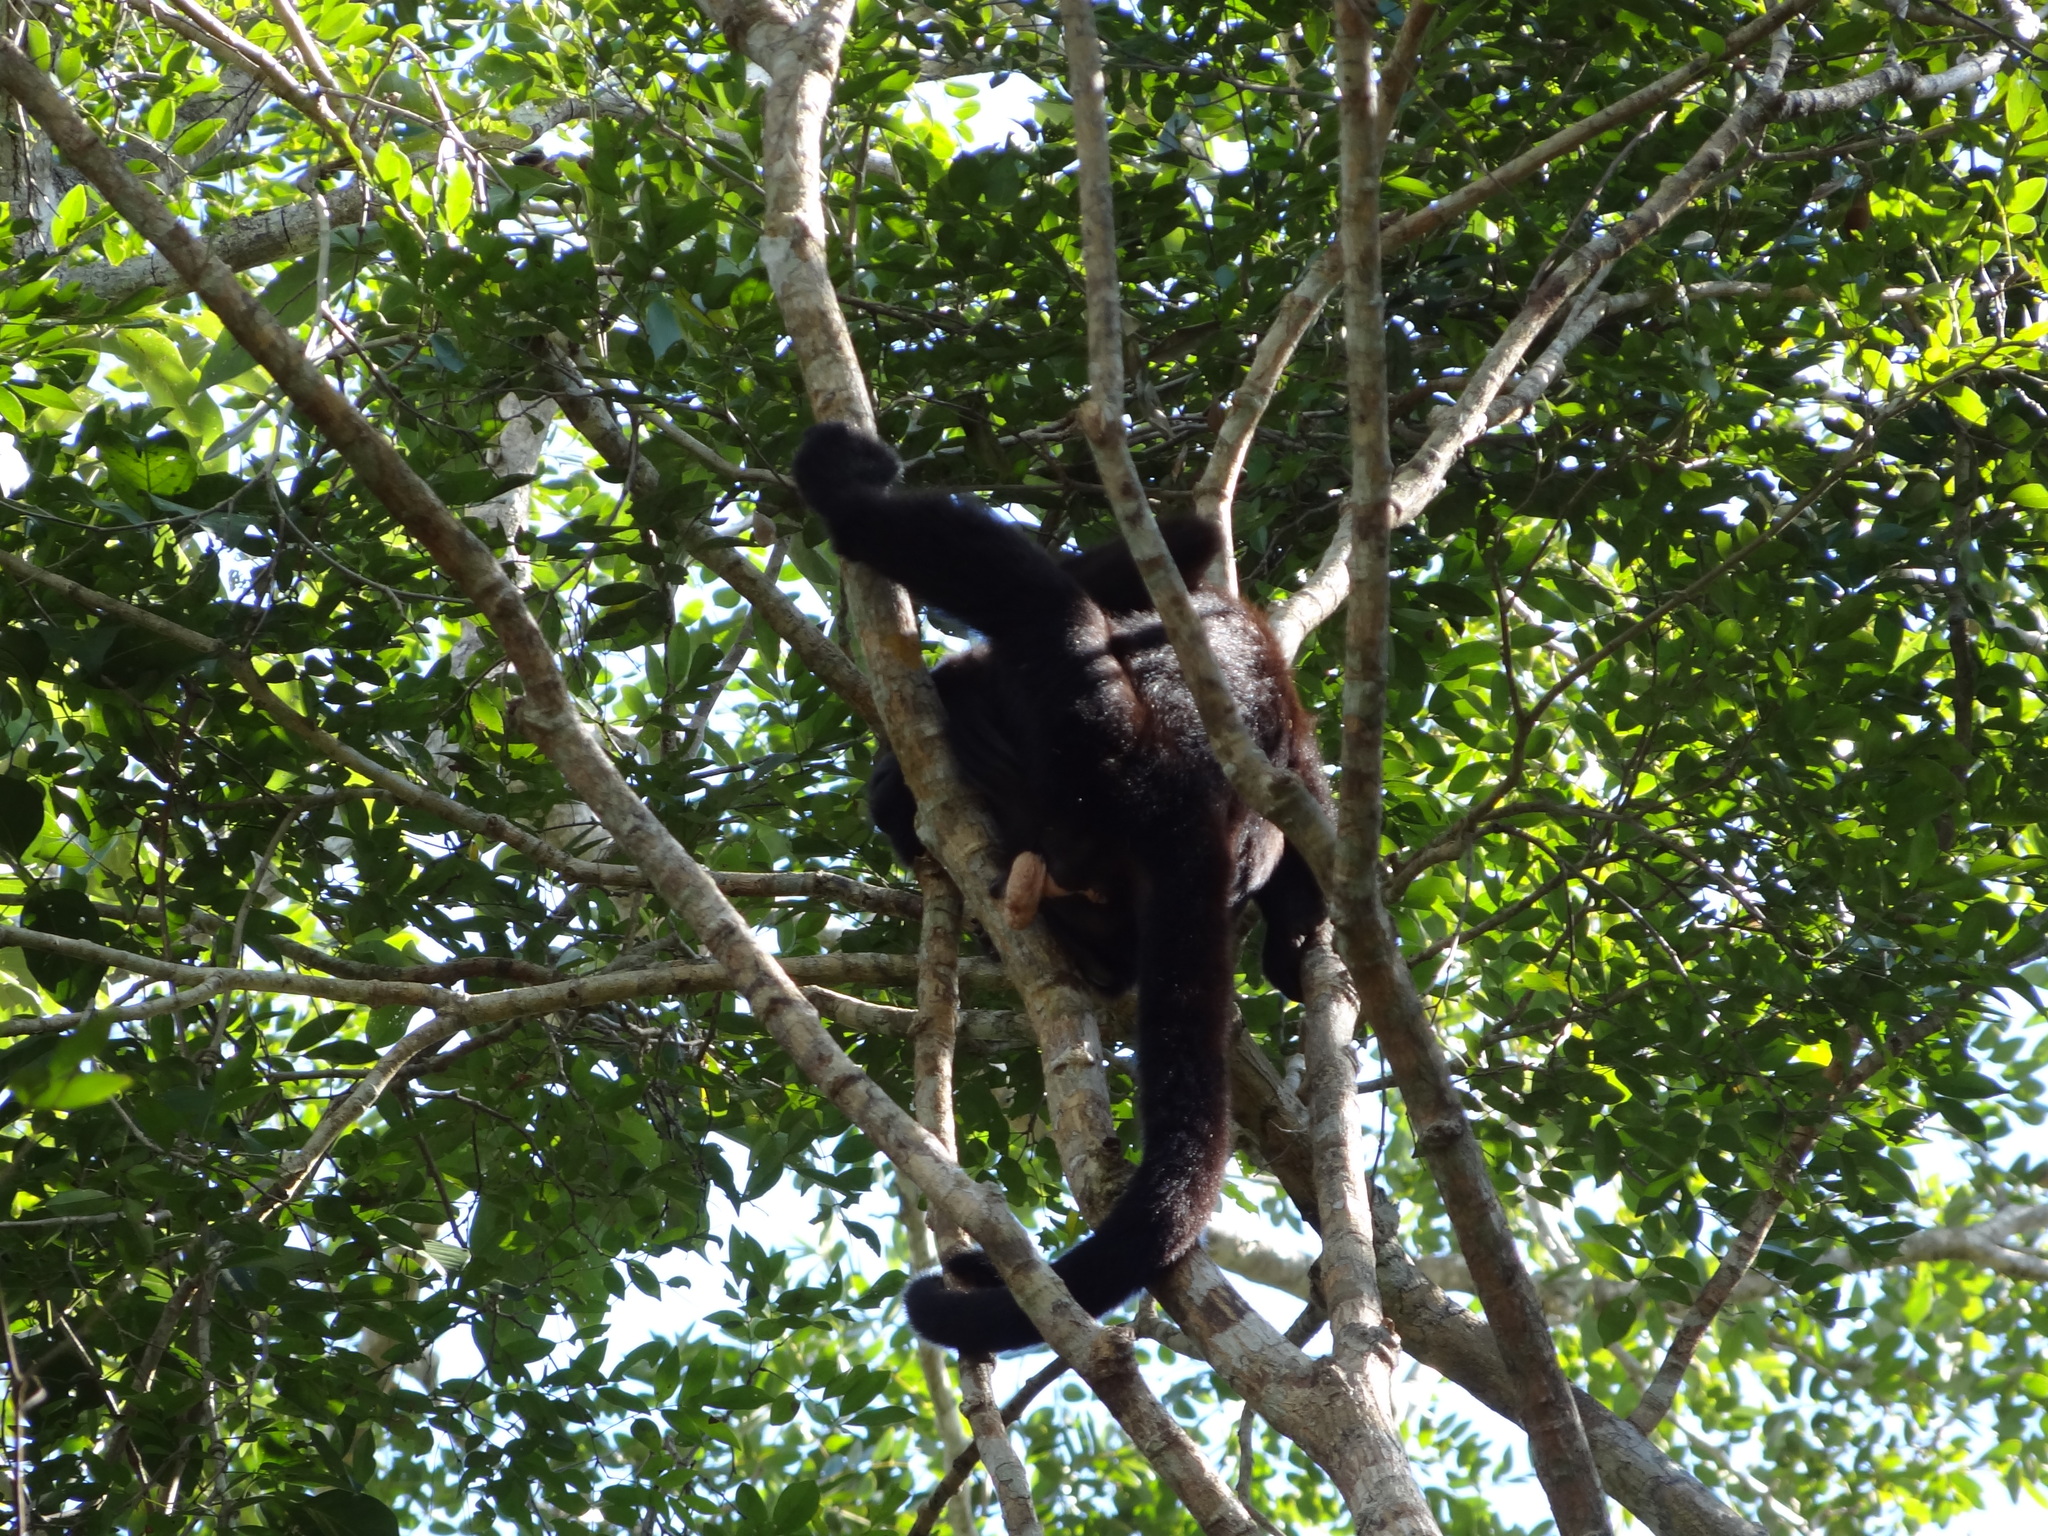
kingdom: Animalia
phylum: Chordata
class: Mammalia
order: Primates
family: Atelidae
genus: Alouatta
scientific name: Alouatta pigra
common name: Guatemalan black howler
